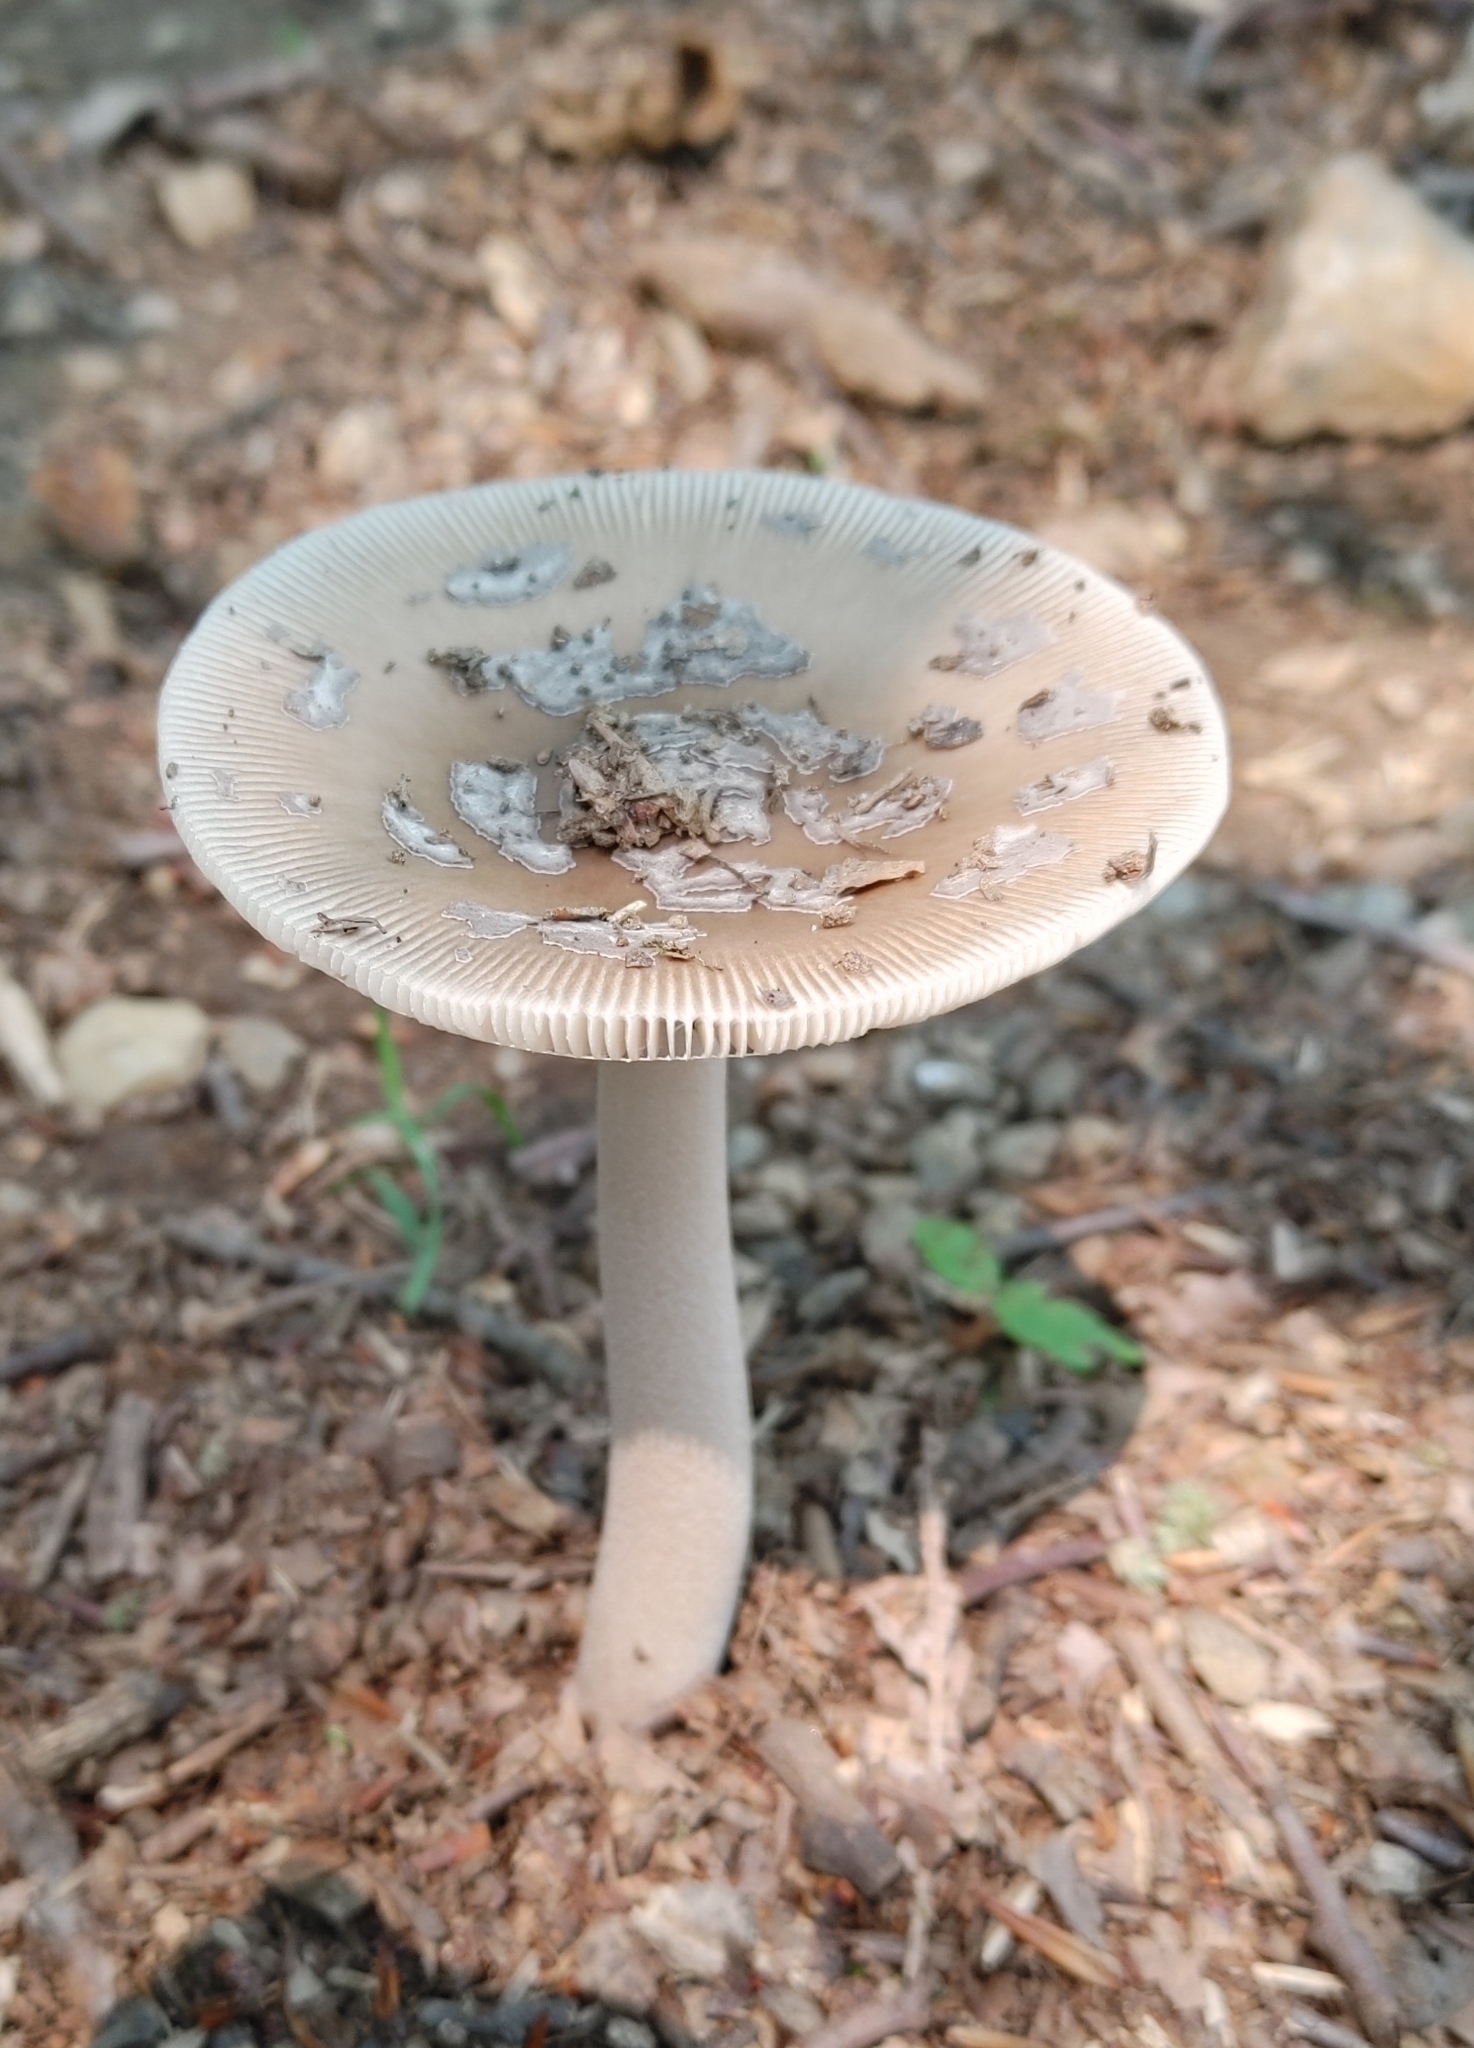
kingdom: Fungi
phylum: Basidiomycota
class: Agaricomycetes
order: Agaricales
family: Amanitaceae
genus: Amanita
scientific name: Amanita rhacopus
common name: Shaggy legged ringless amanita
